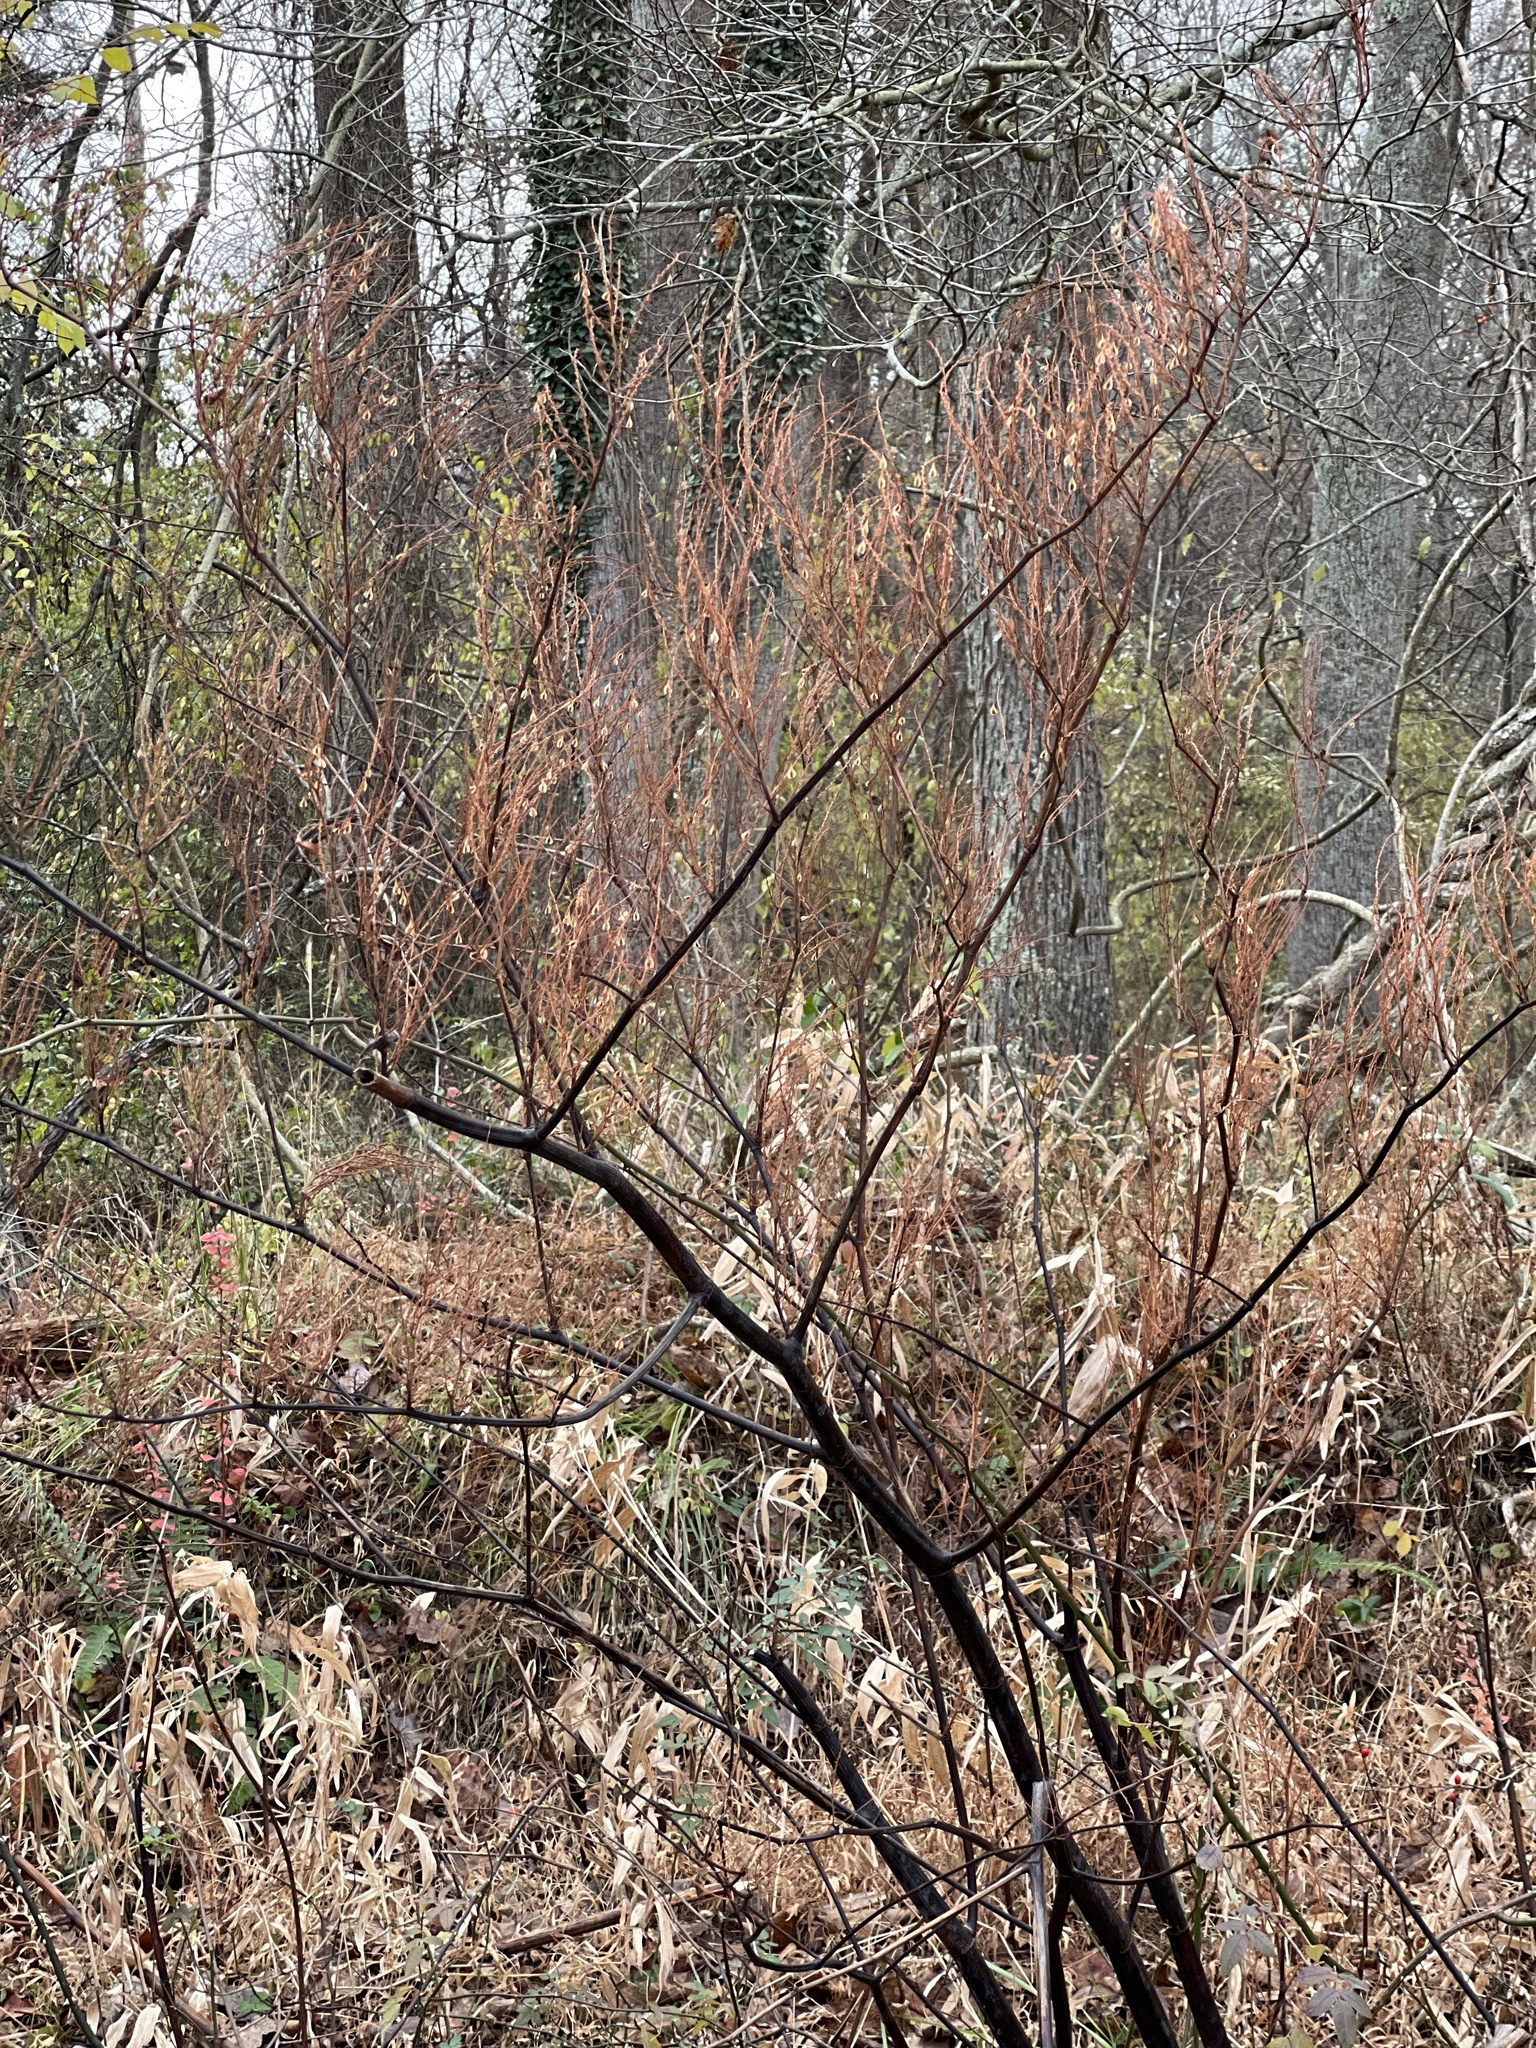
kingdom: Plantae
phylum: Tracheophyta
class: Magnoliopsida
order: Caryophyllales
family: Polygonaceae
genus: Reynoutria
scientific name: Reynoutria japonica
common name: Japanese knotweed
